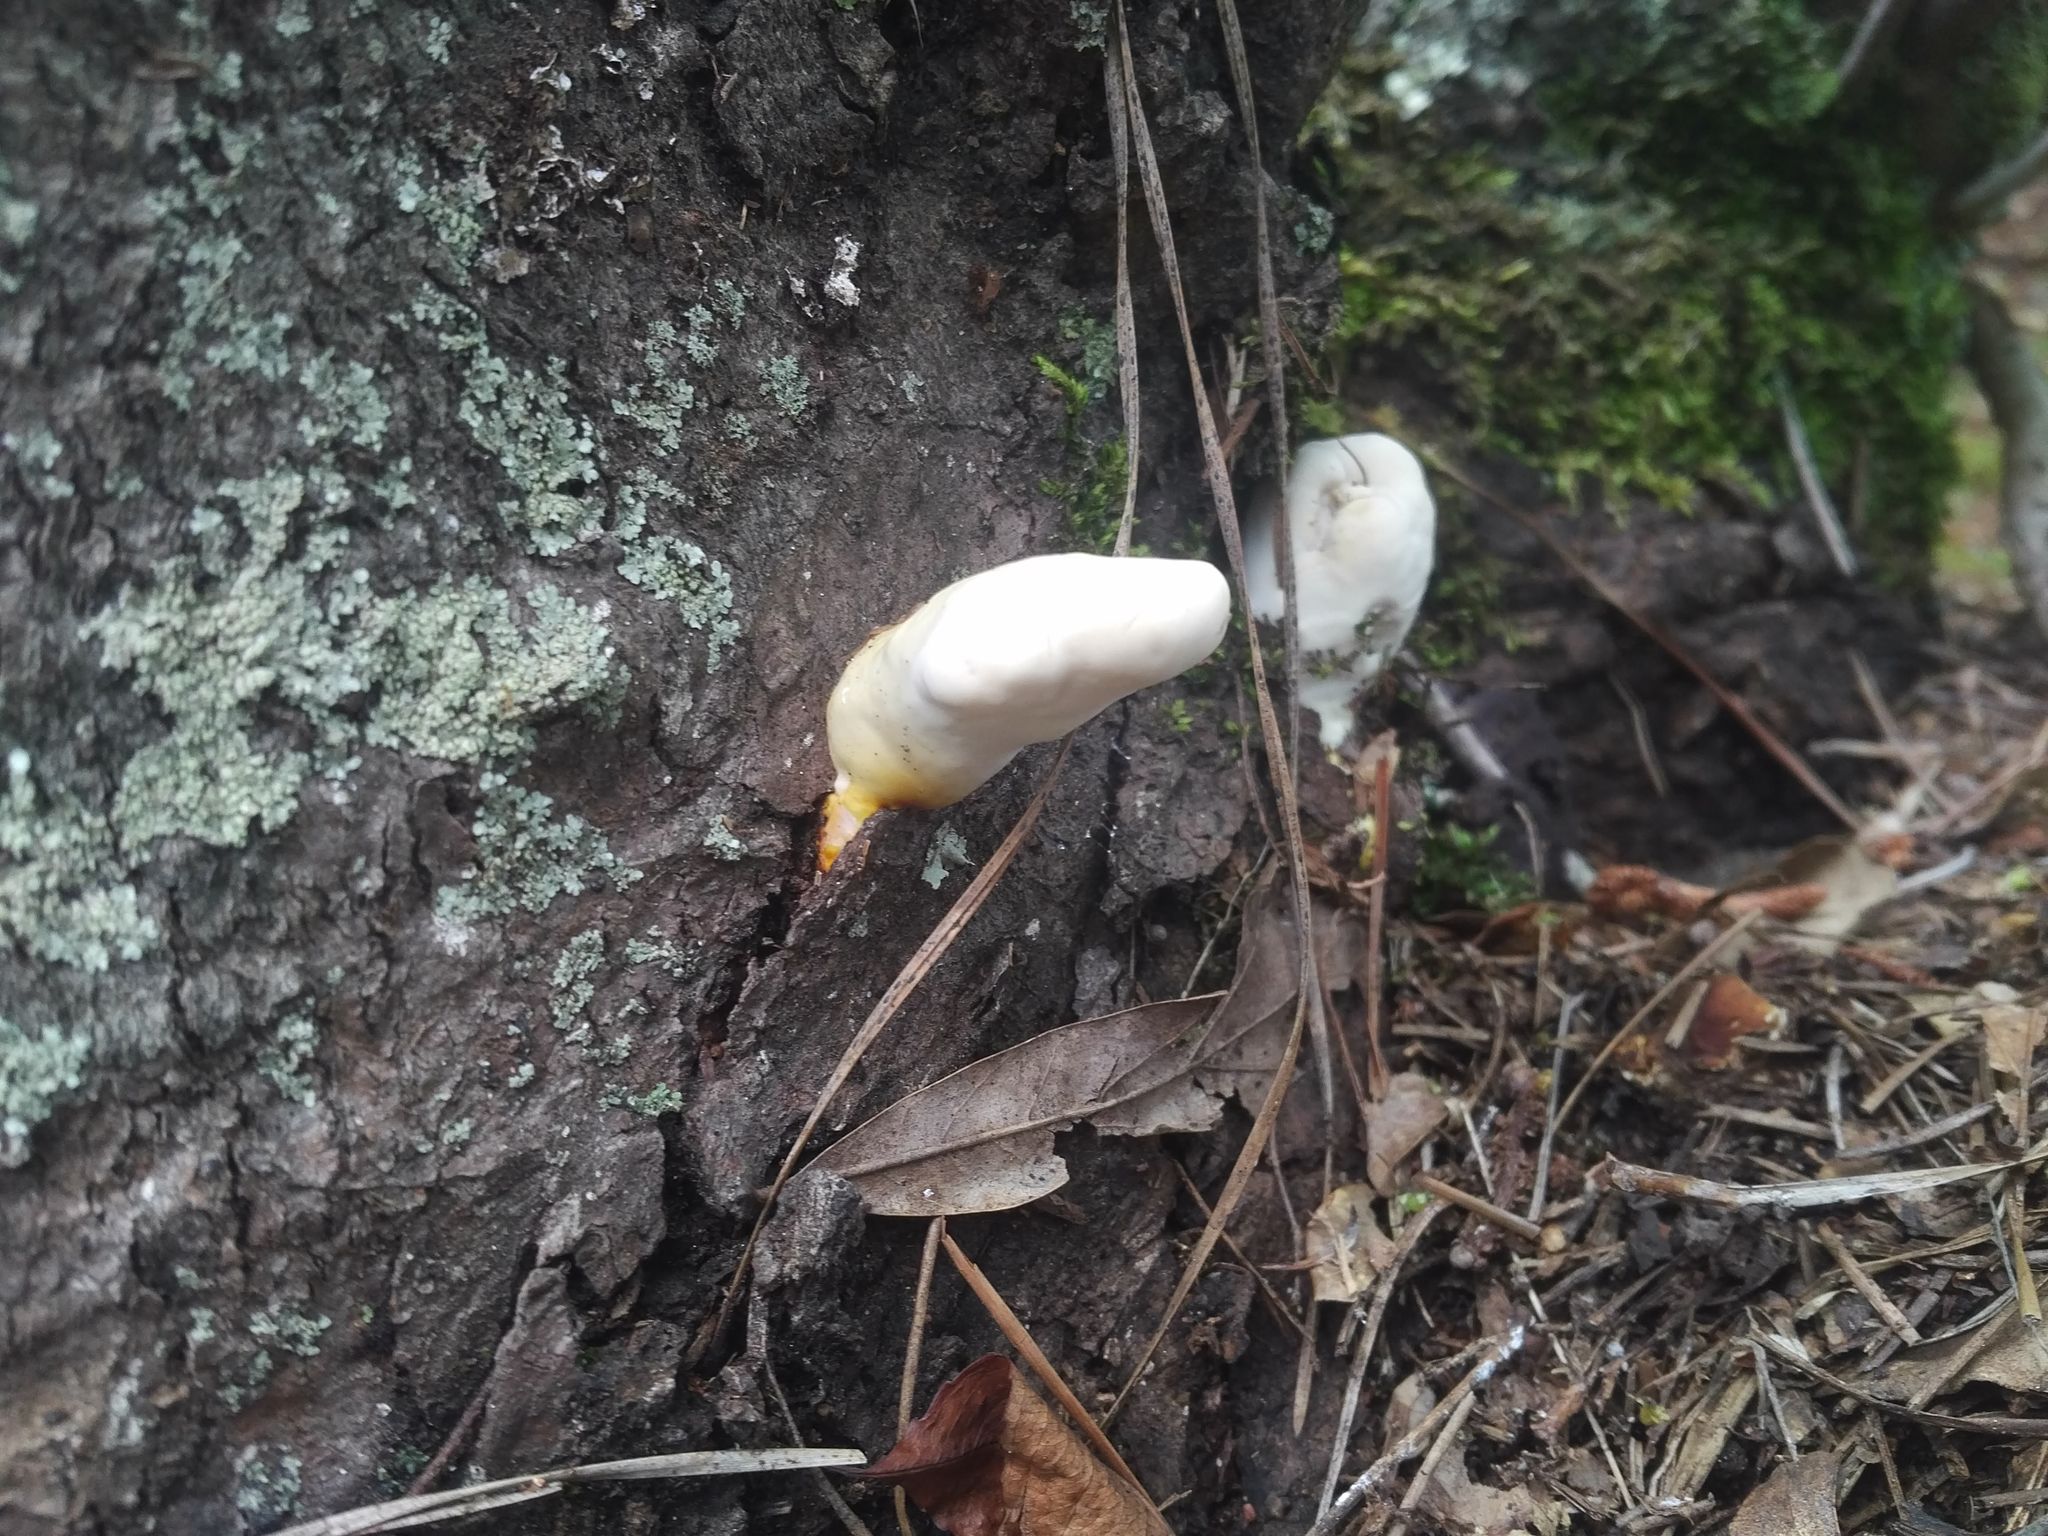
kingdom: Fungi
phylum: Basidiomycota
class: Agaricomycetes
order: Polyporales
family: Polyporaceae
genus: Ganoderma
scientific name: Ganoderma curtisii
